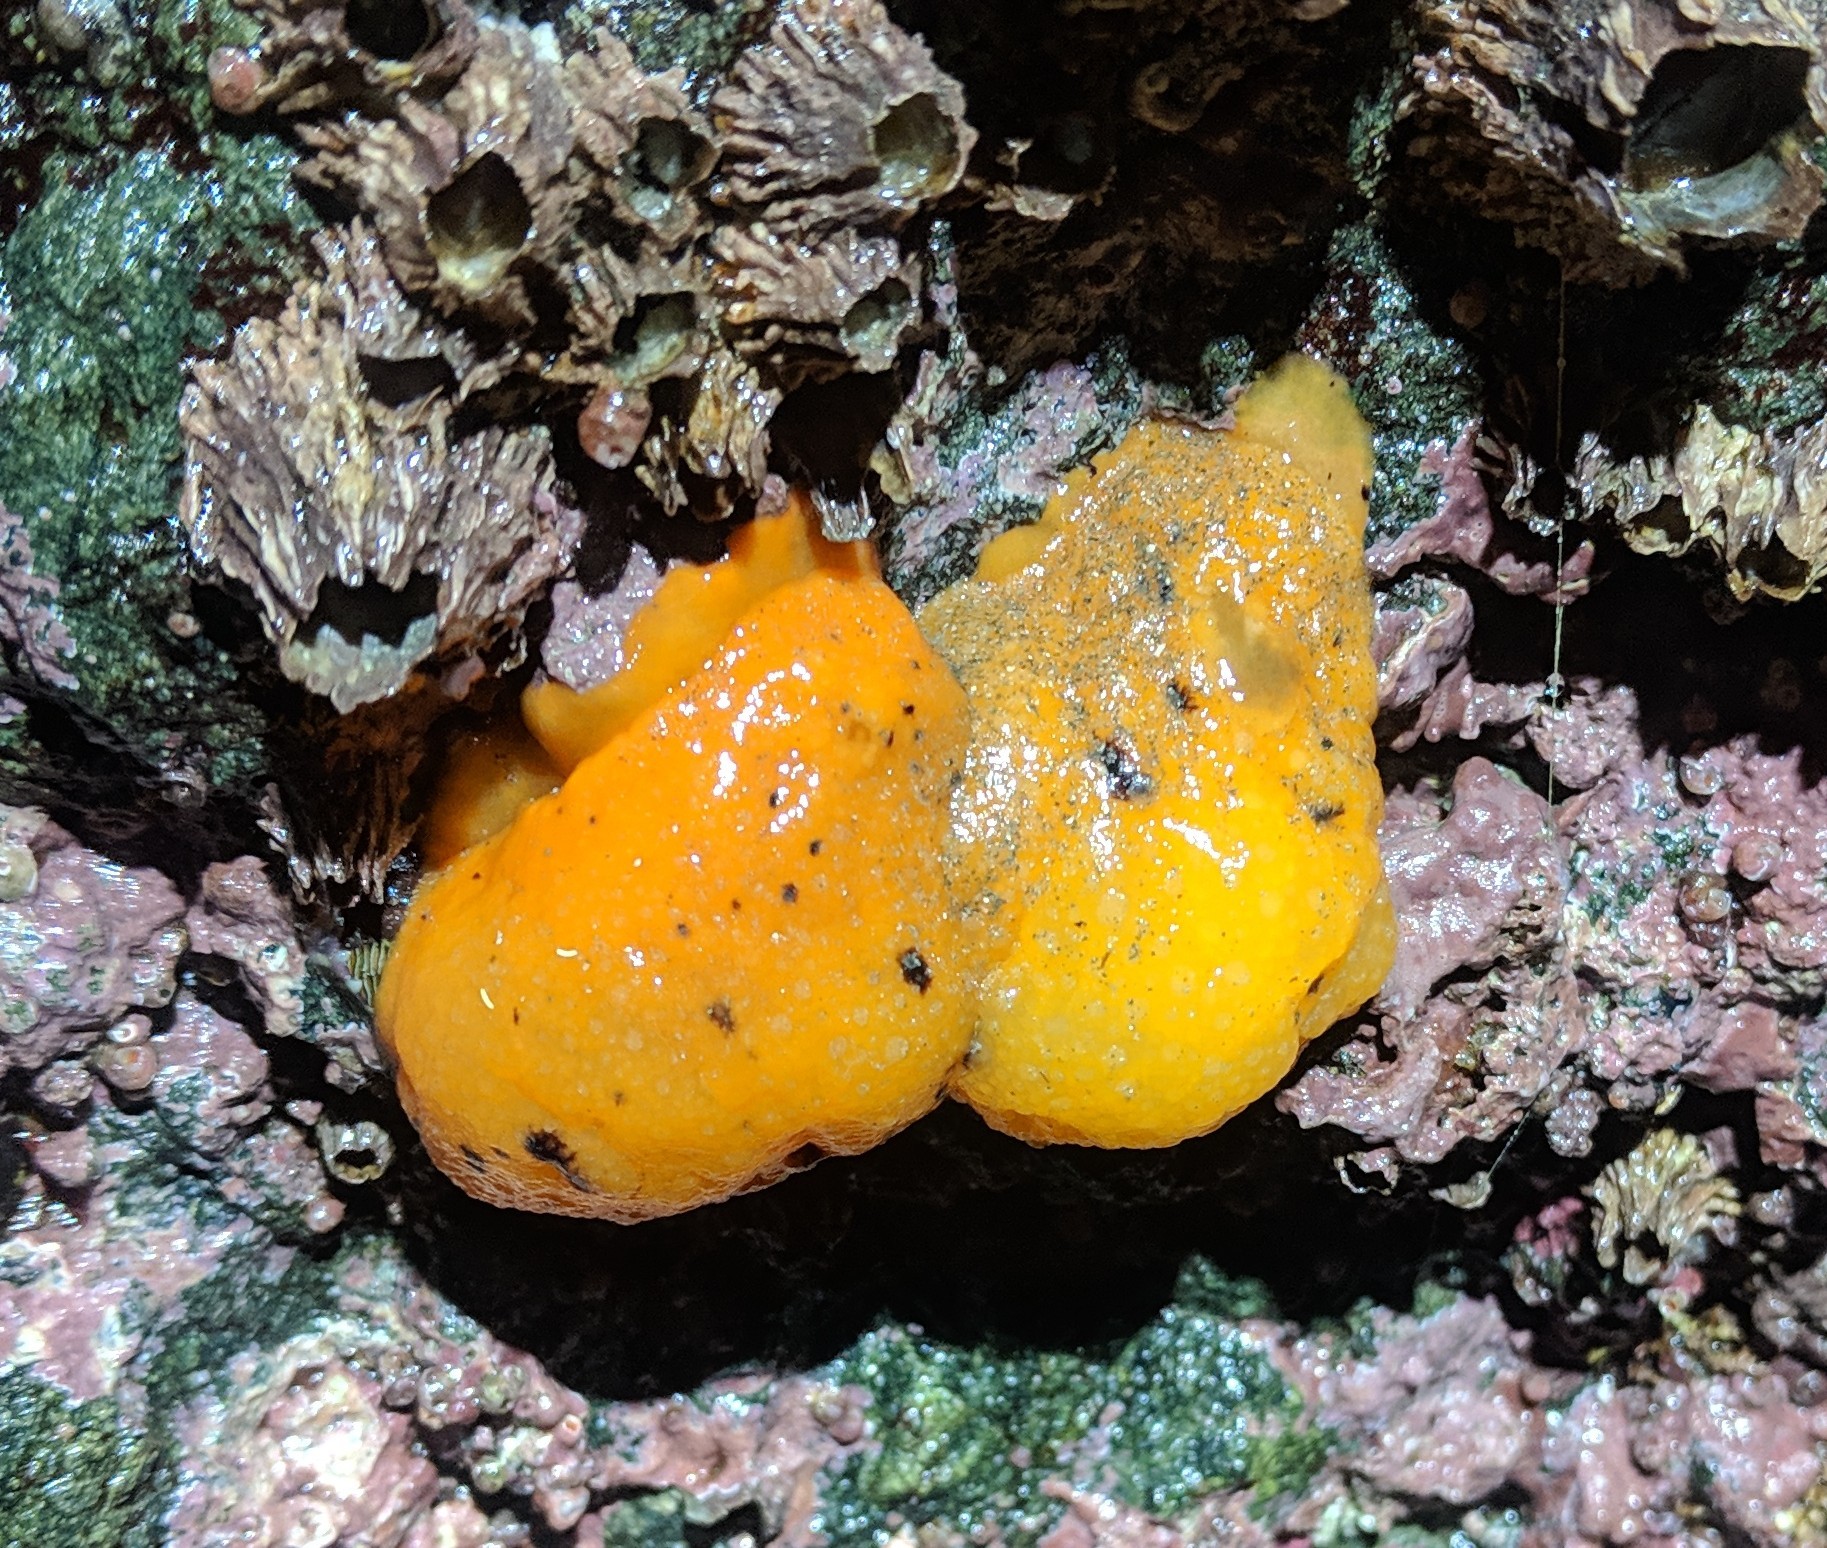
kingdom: Animalia
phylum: Mollusca
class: Gastropoda
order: Nudibranchia
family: Dorididae
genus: Doris
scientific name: Doris montereyensis
